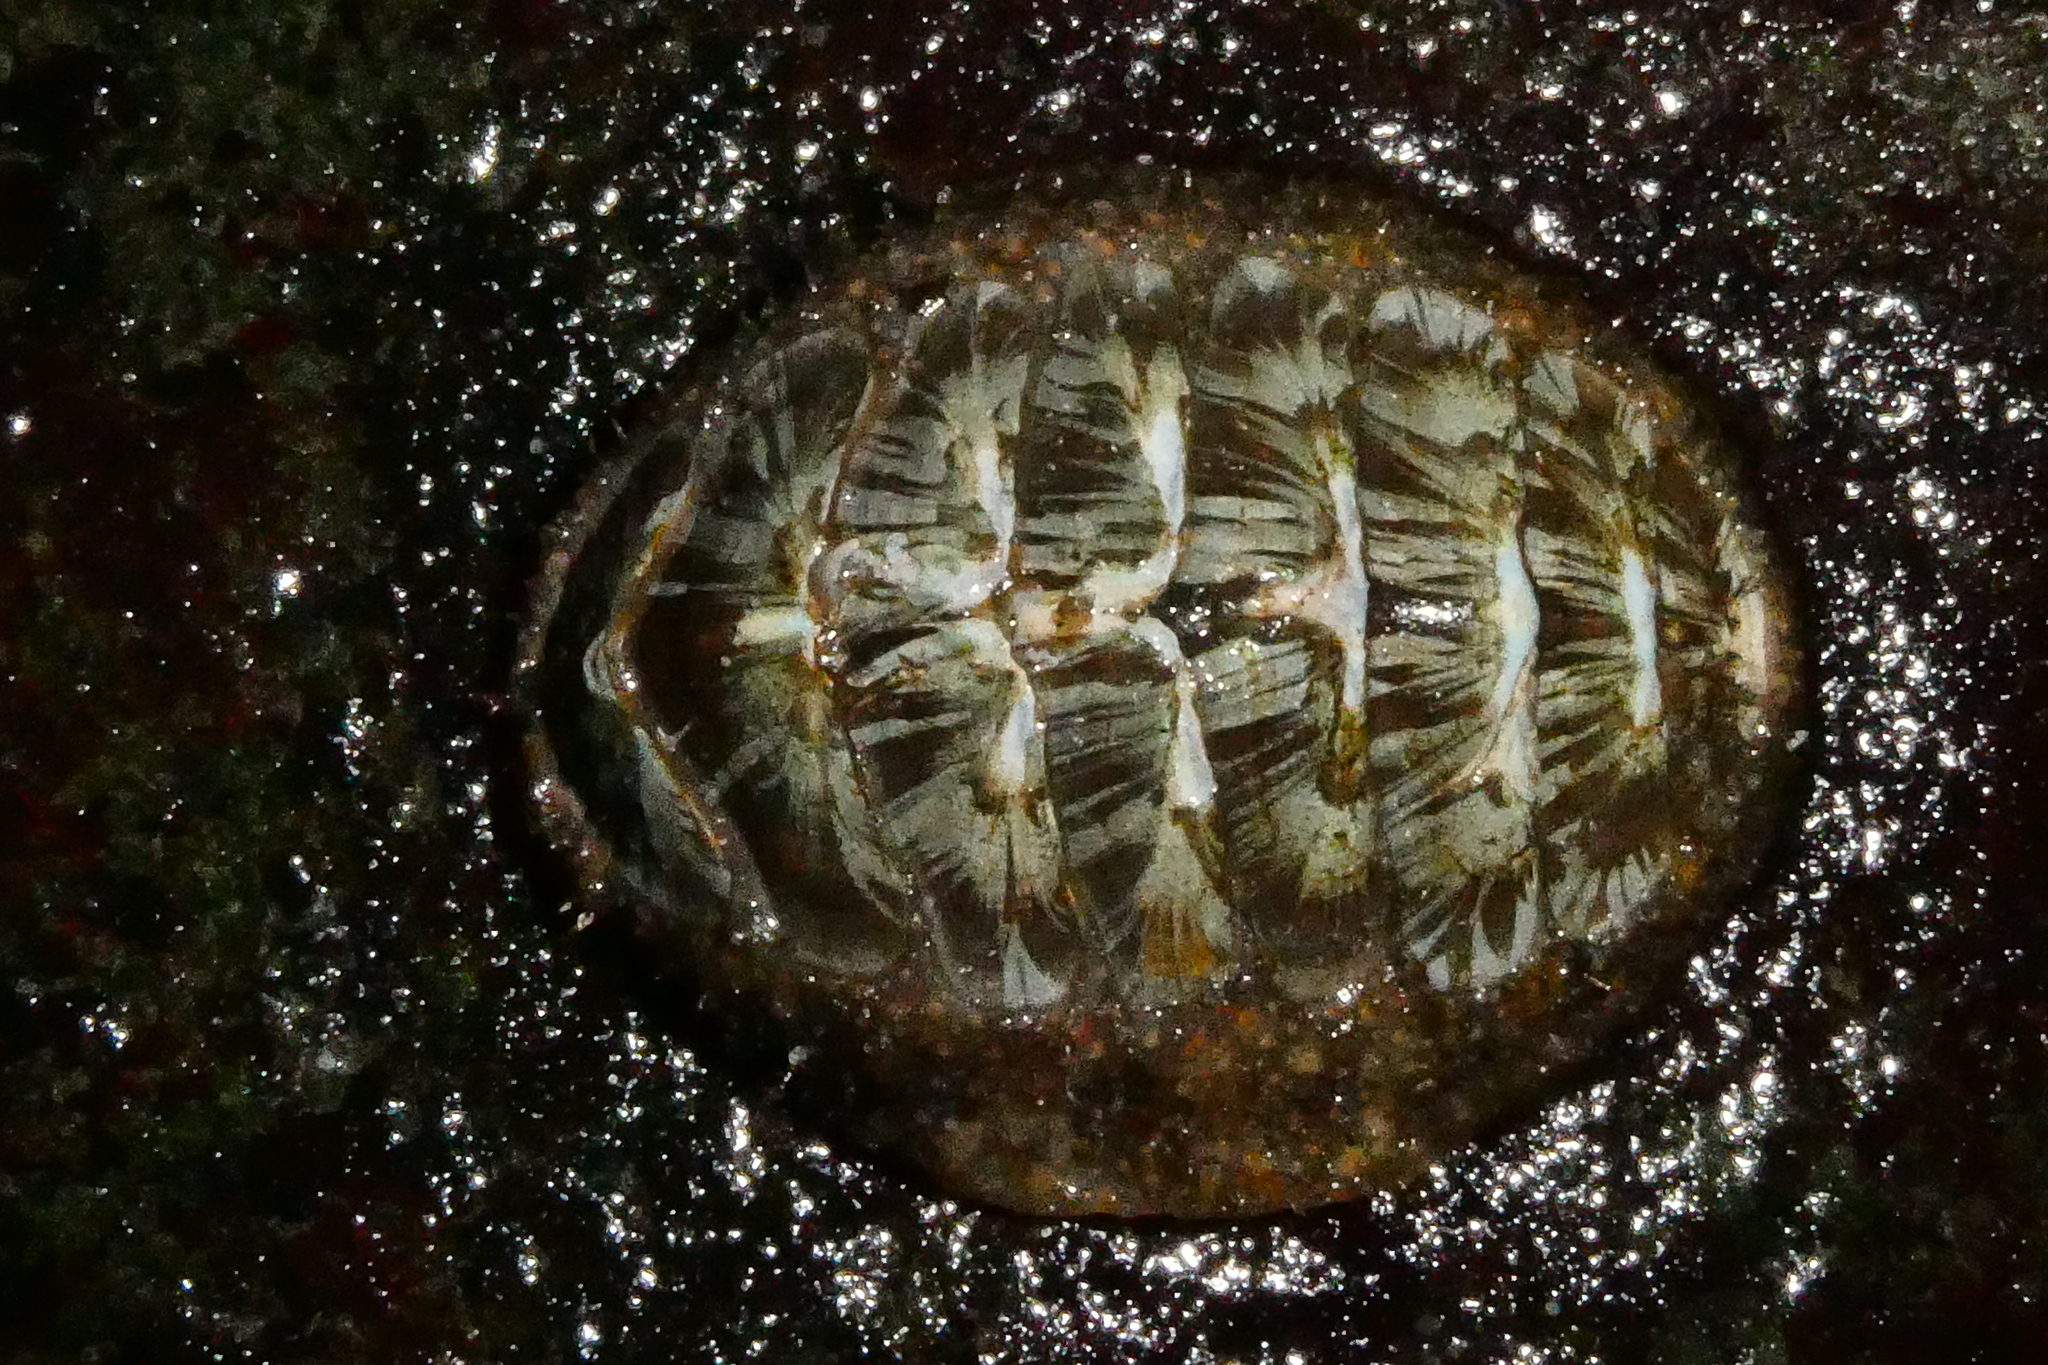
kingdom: Animalia
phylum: Mollusca
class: Polyplacophora
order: Chitonida
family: Mopaliidae
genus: Mopalia
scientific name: Mopalia lignosa
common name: Woody chiton
